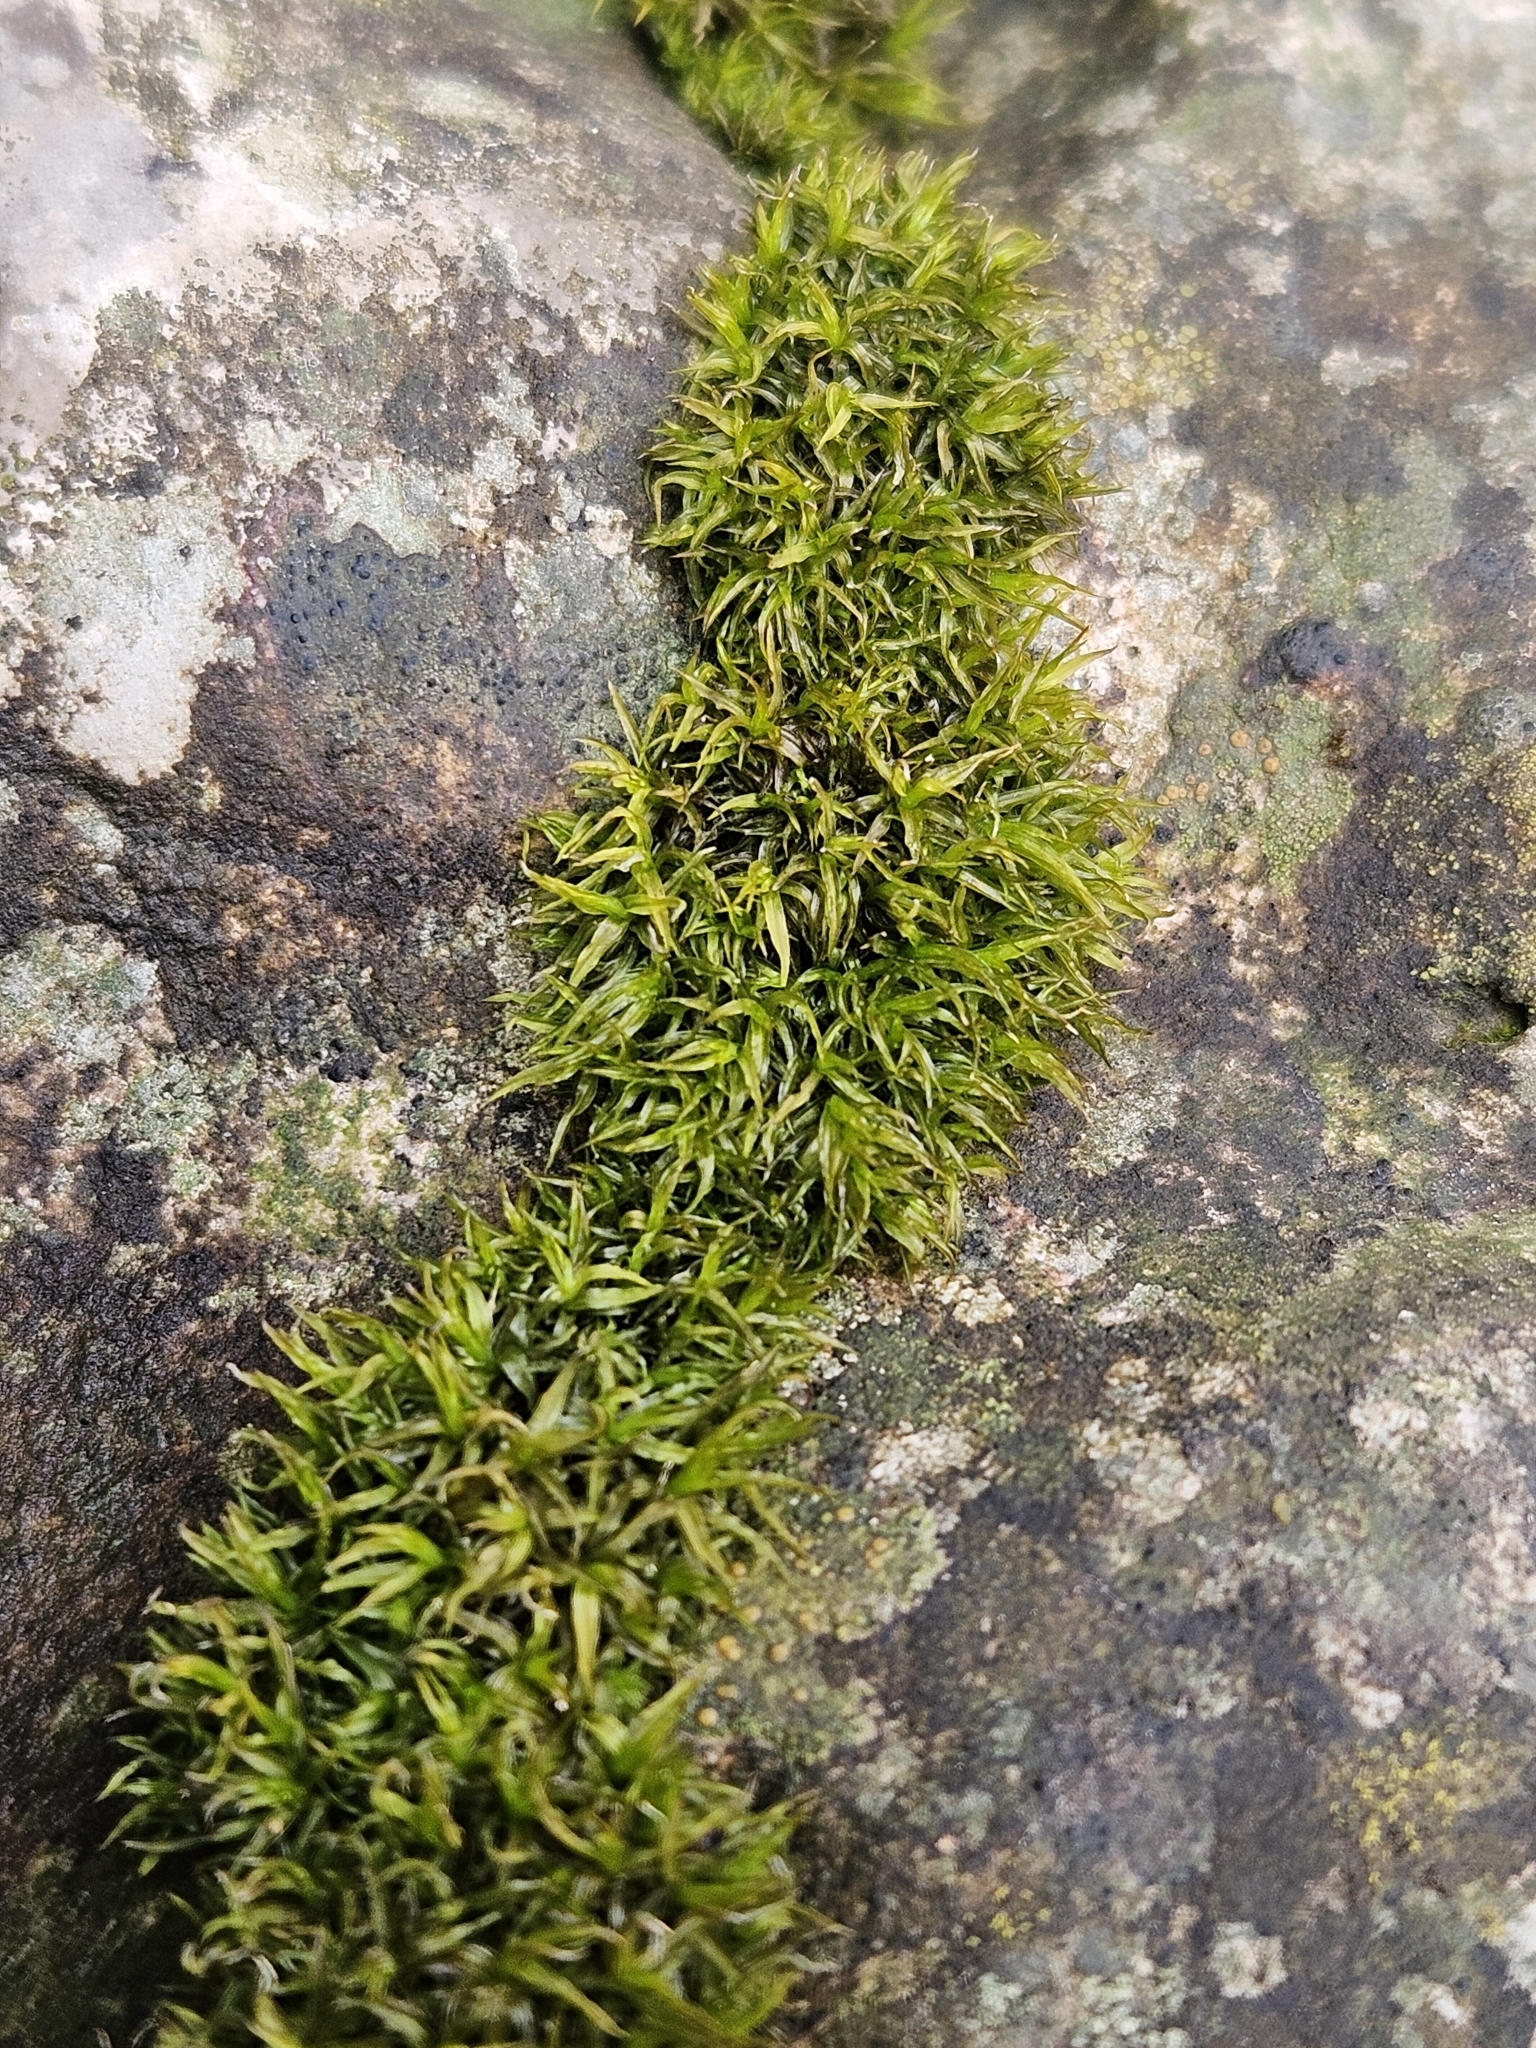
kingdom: Plantae
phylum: Bryophyta
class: Bryopsida
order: Pottiales
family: Pottiaceae
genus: Husnotiella
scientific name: Husnotiella sinuosa
